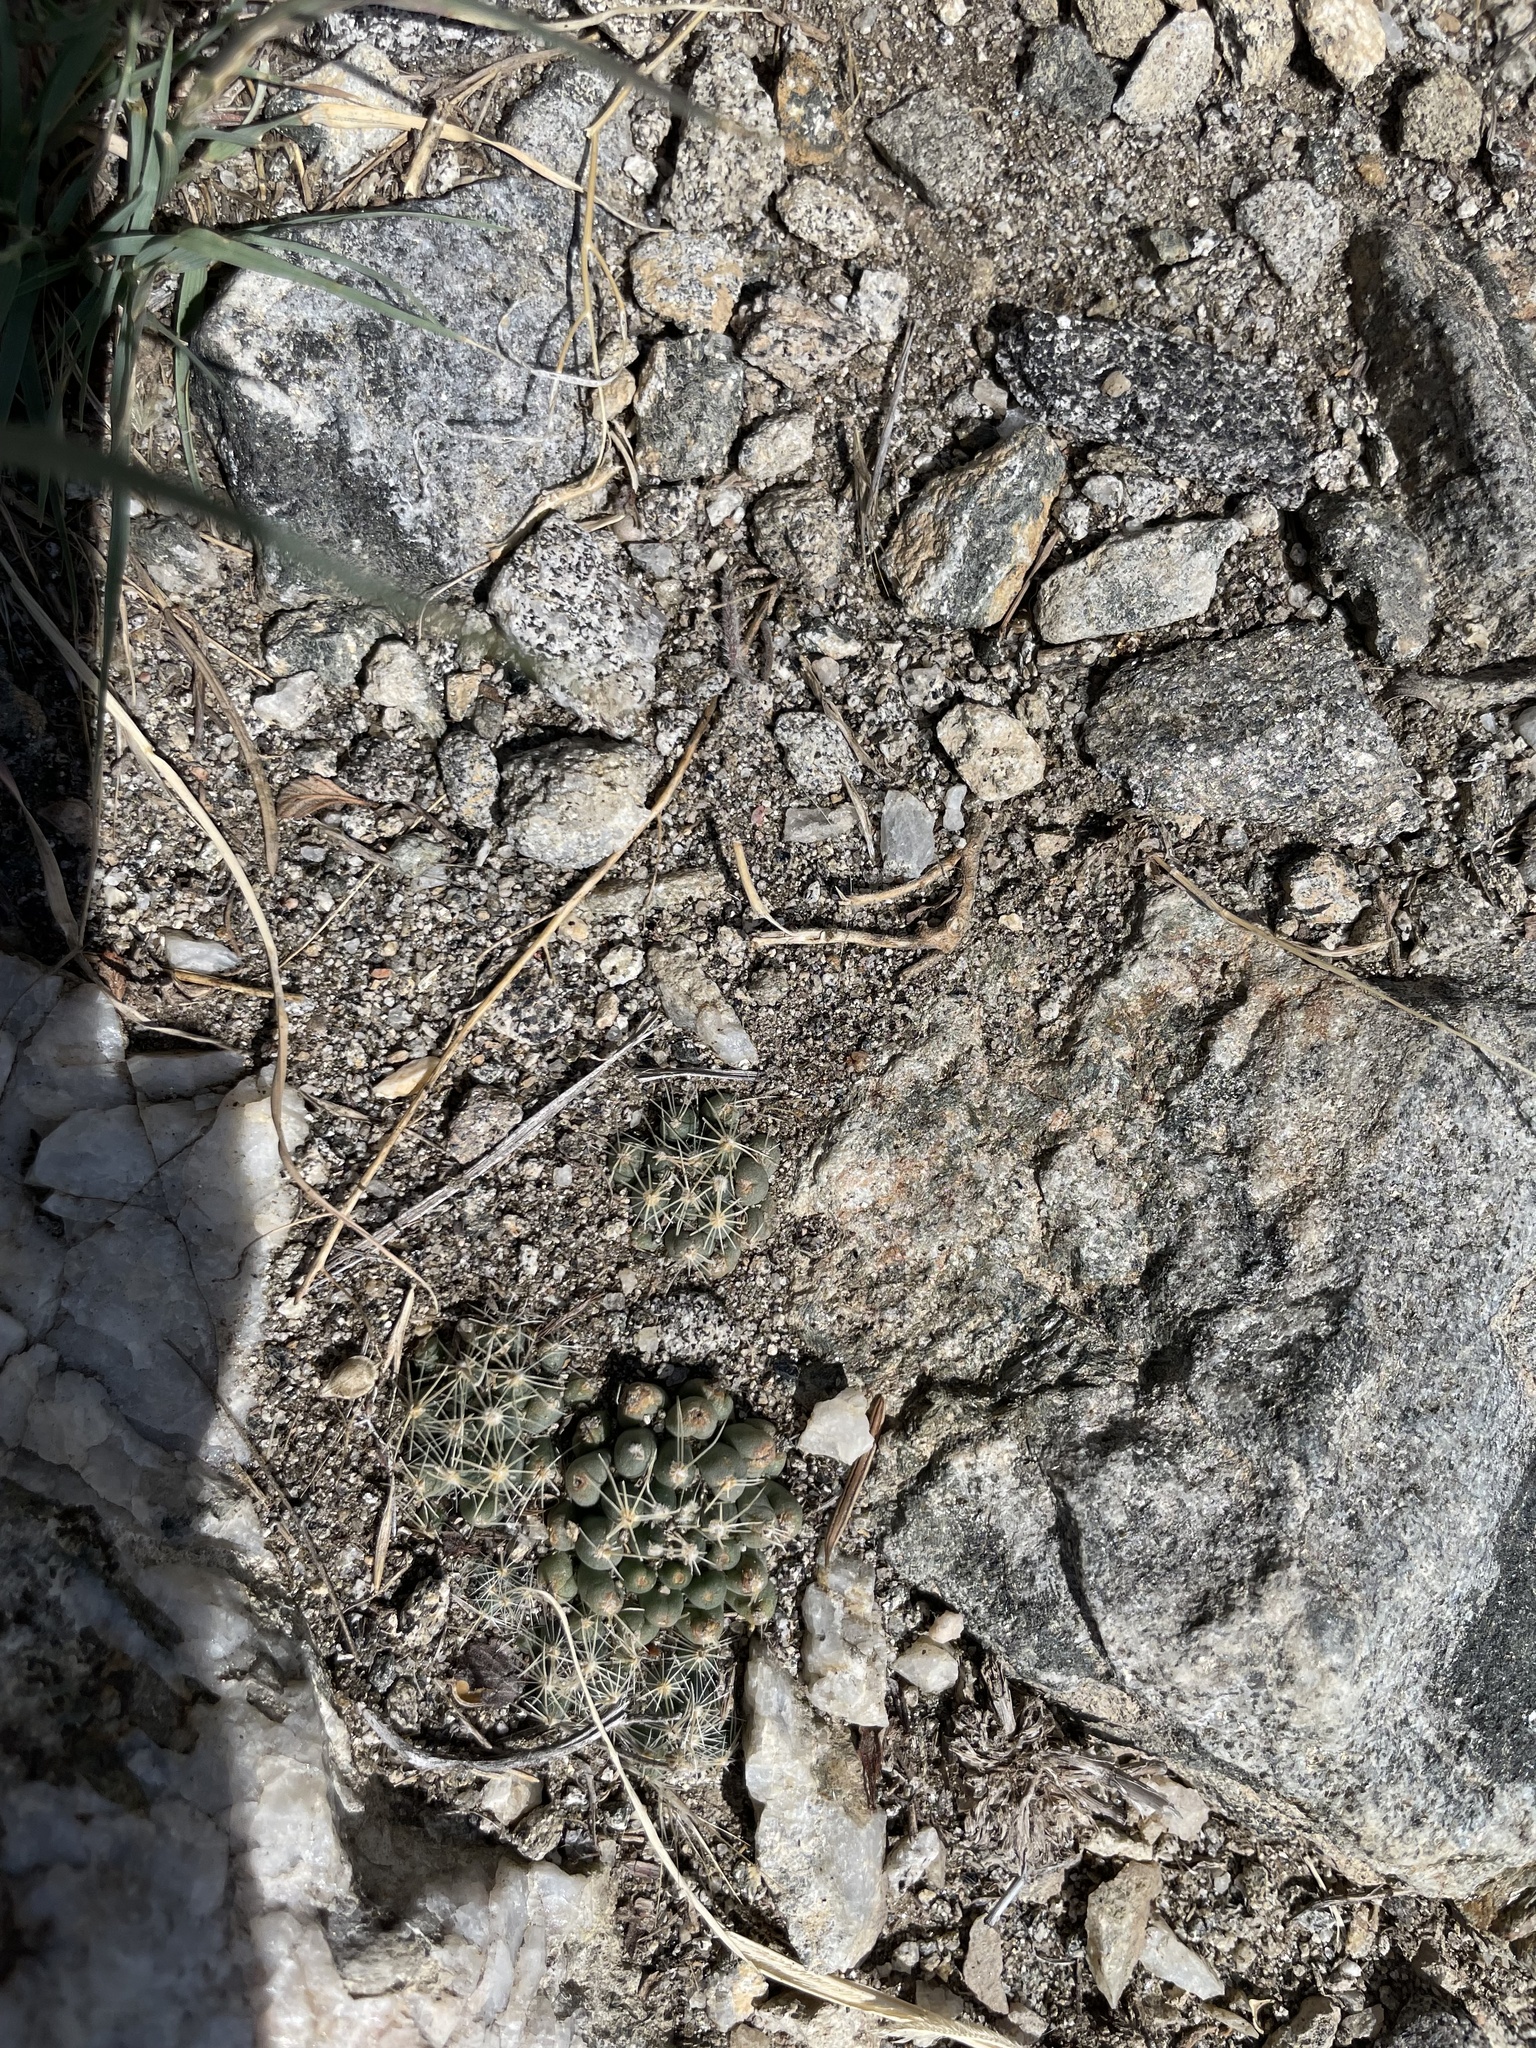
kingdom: Plantae
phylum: Tracheophyta
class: Magnoliopsida
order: Caryophyllales
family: Cactaceae
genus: Pelecyphora
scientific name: Pelecyphora missouriensis
